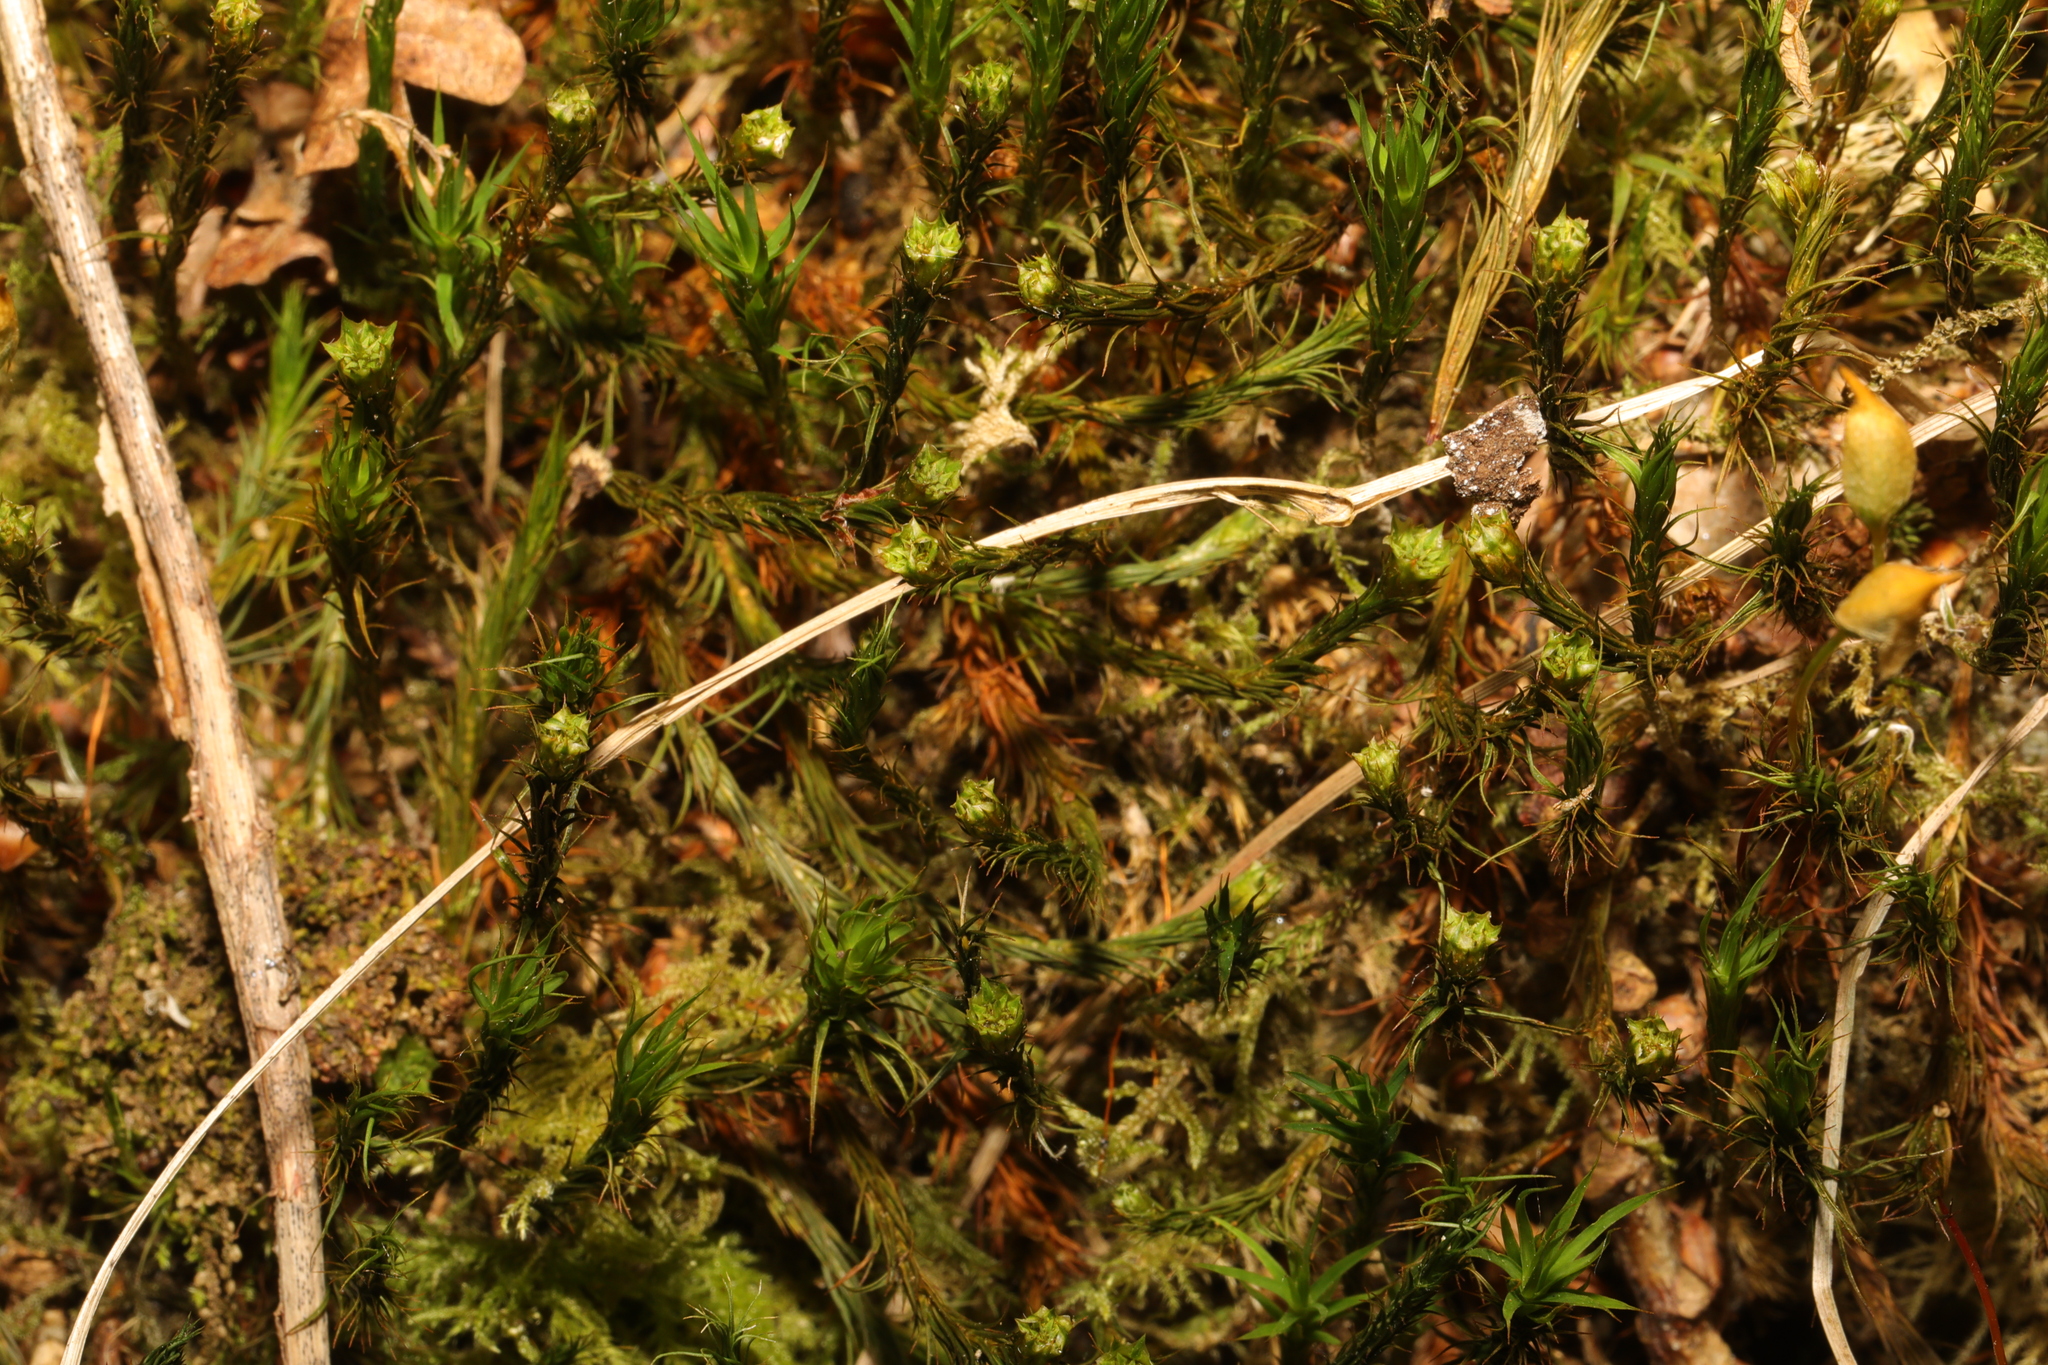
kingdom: Plantae
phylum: Bryophyta
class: Polytrichopsida
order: Polytrichales
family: Polytrichaceae
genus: Polytrichum
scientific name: Polytrichum formosum
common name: Bank haircap moss
